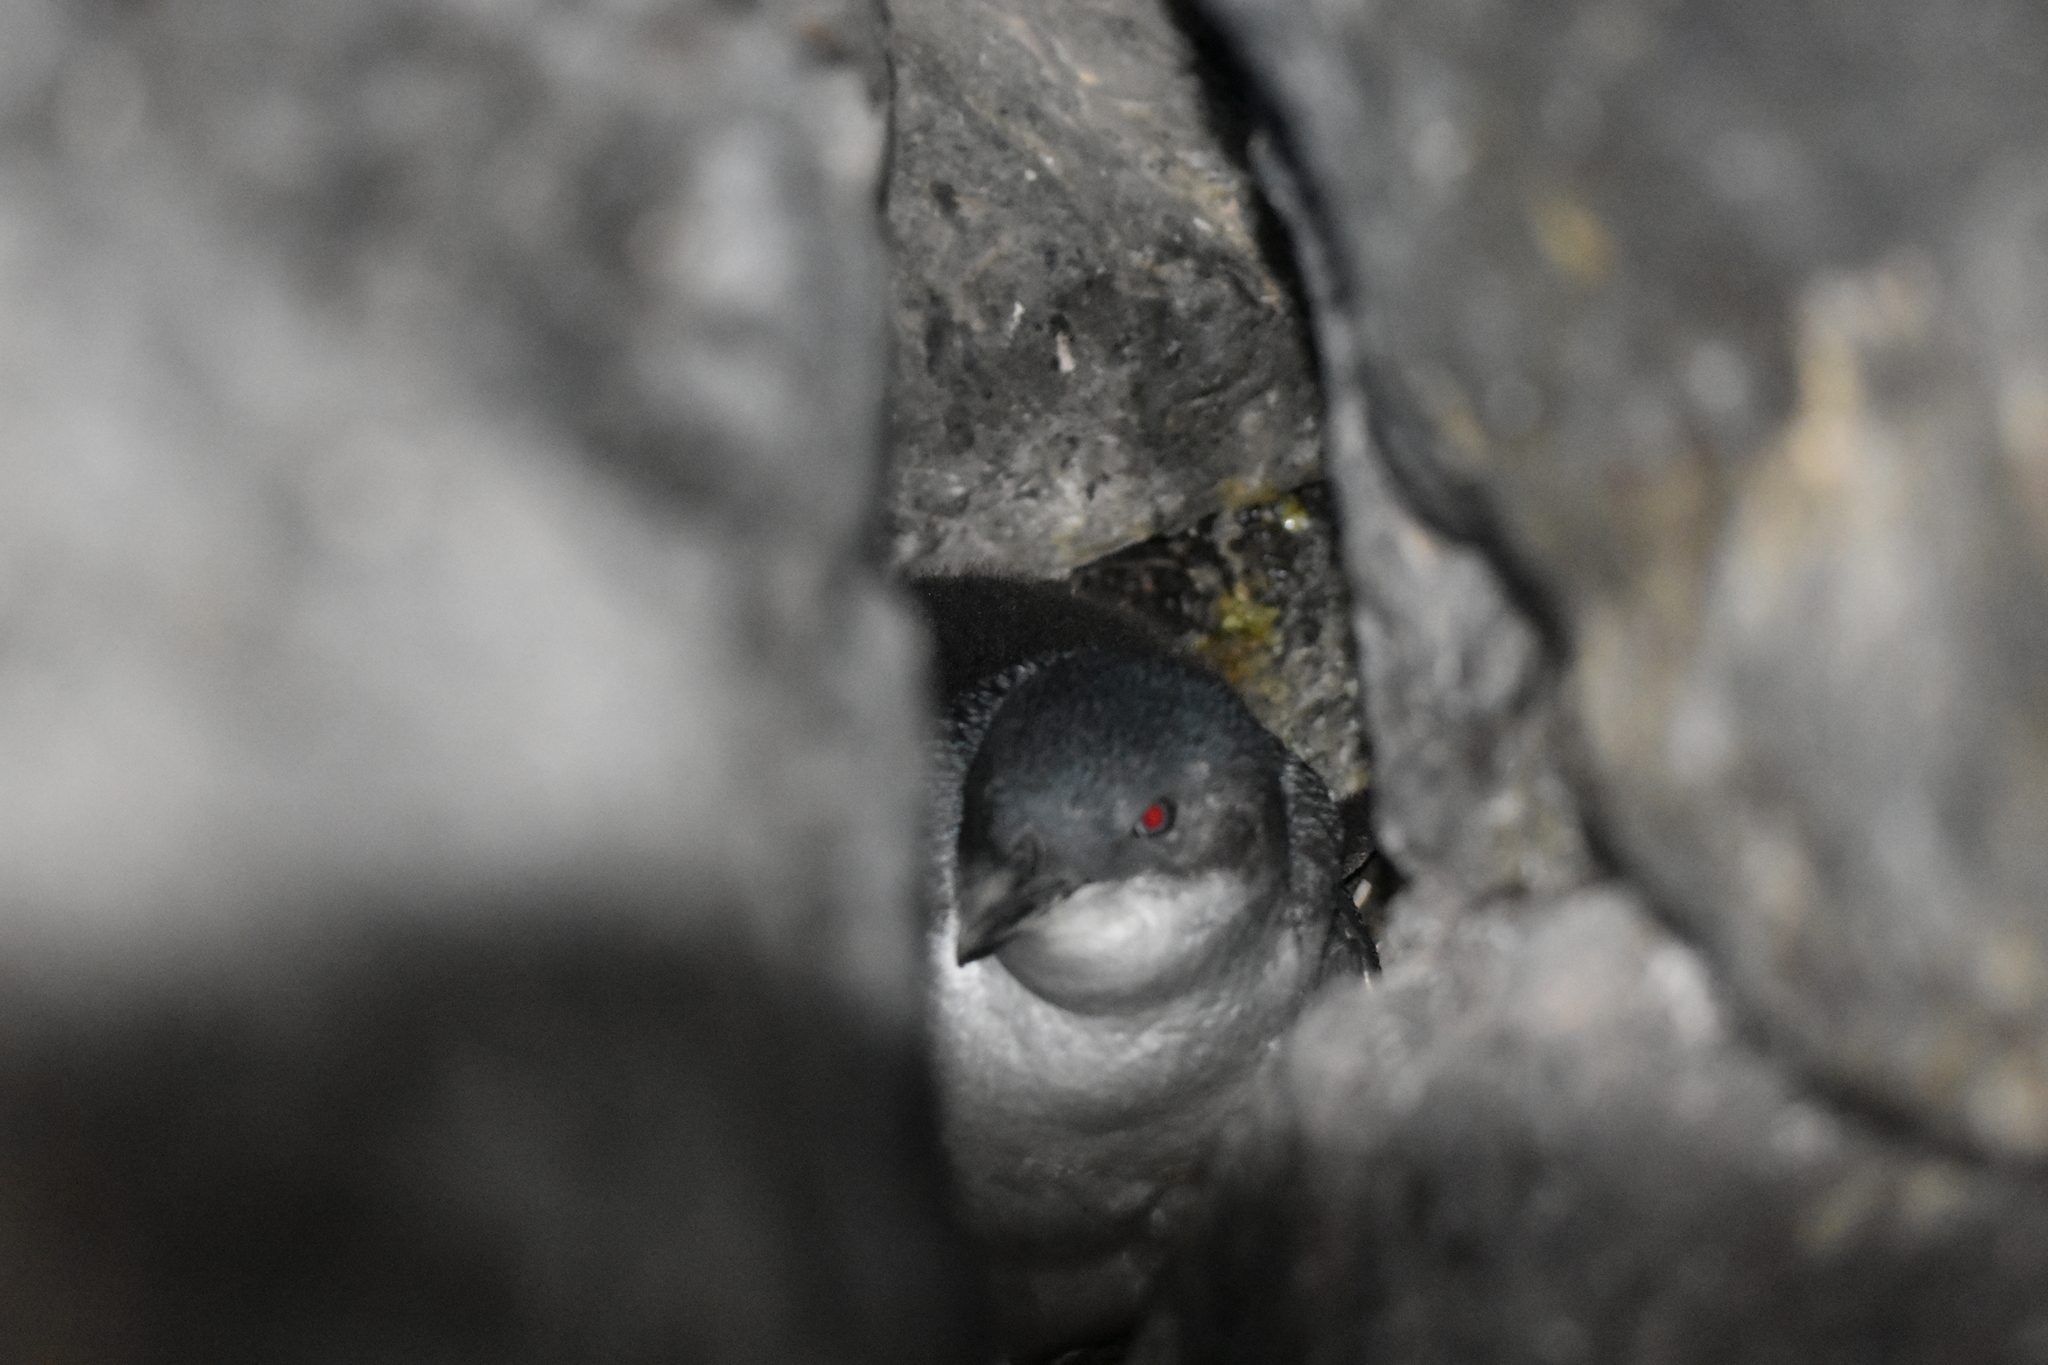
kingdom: Animalia
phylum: Chordata
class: Aves
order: Sphenisciformes
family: Spheniscidae
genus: Eudyptula
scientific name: Eudyptula minor
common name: Little penguin
